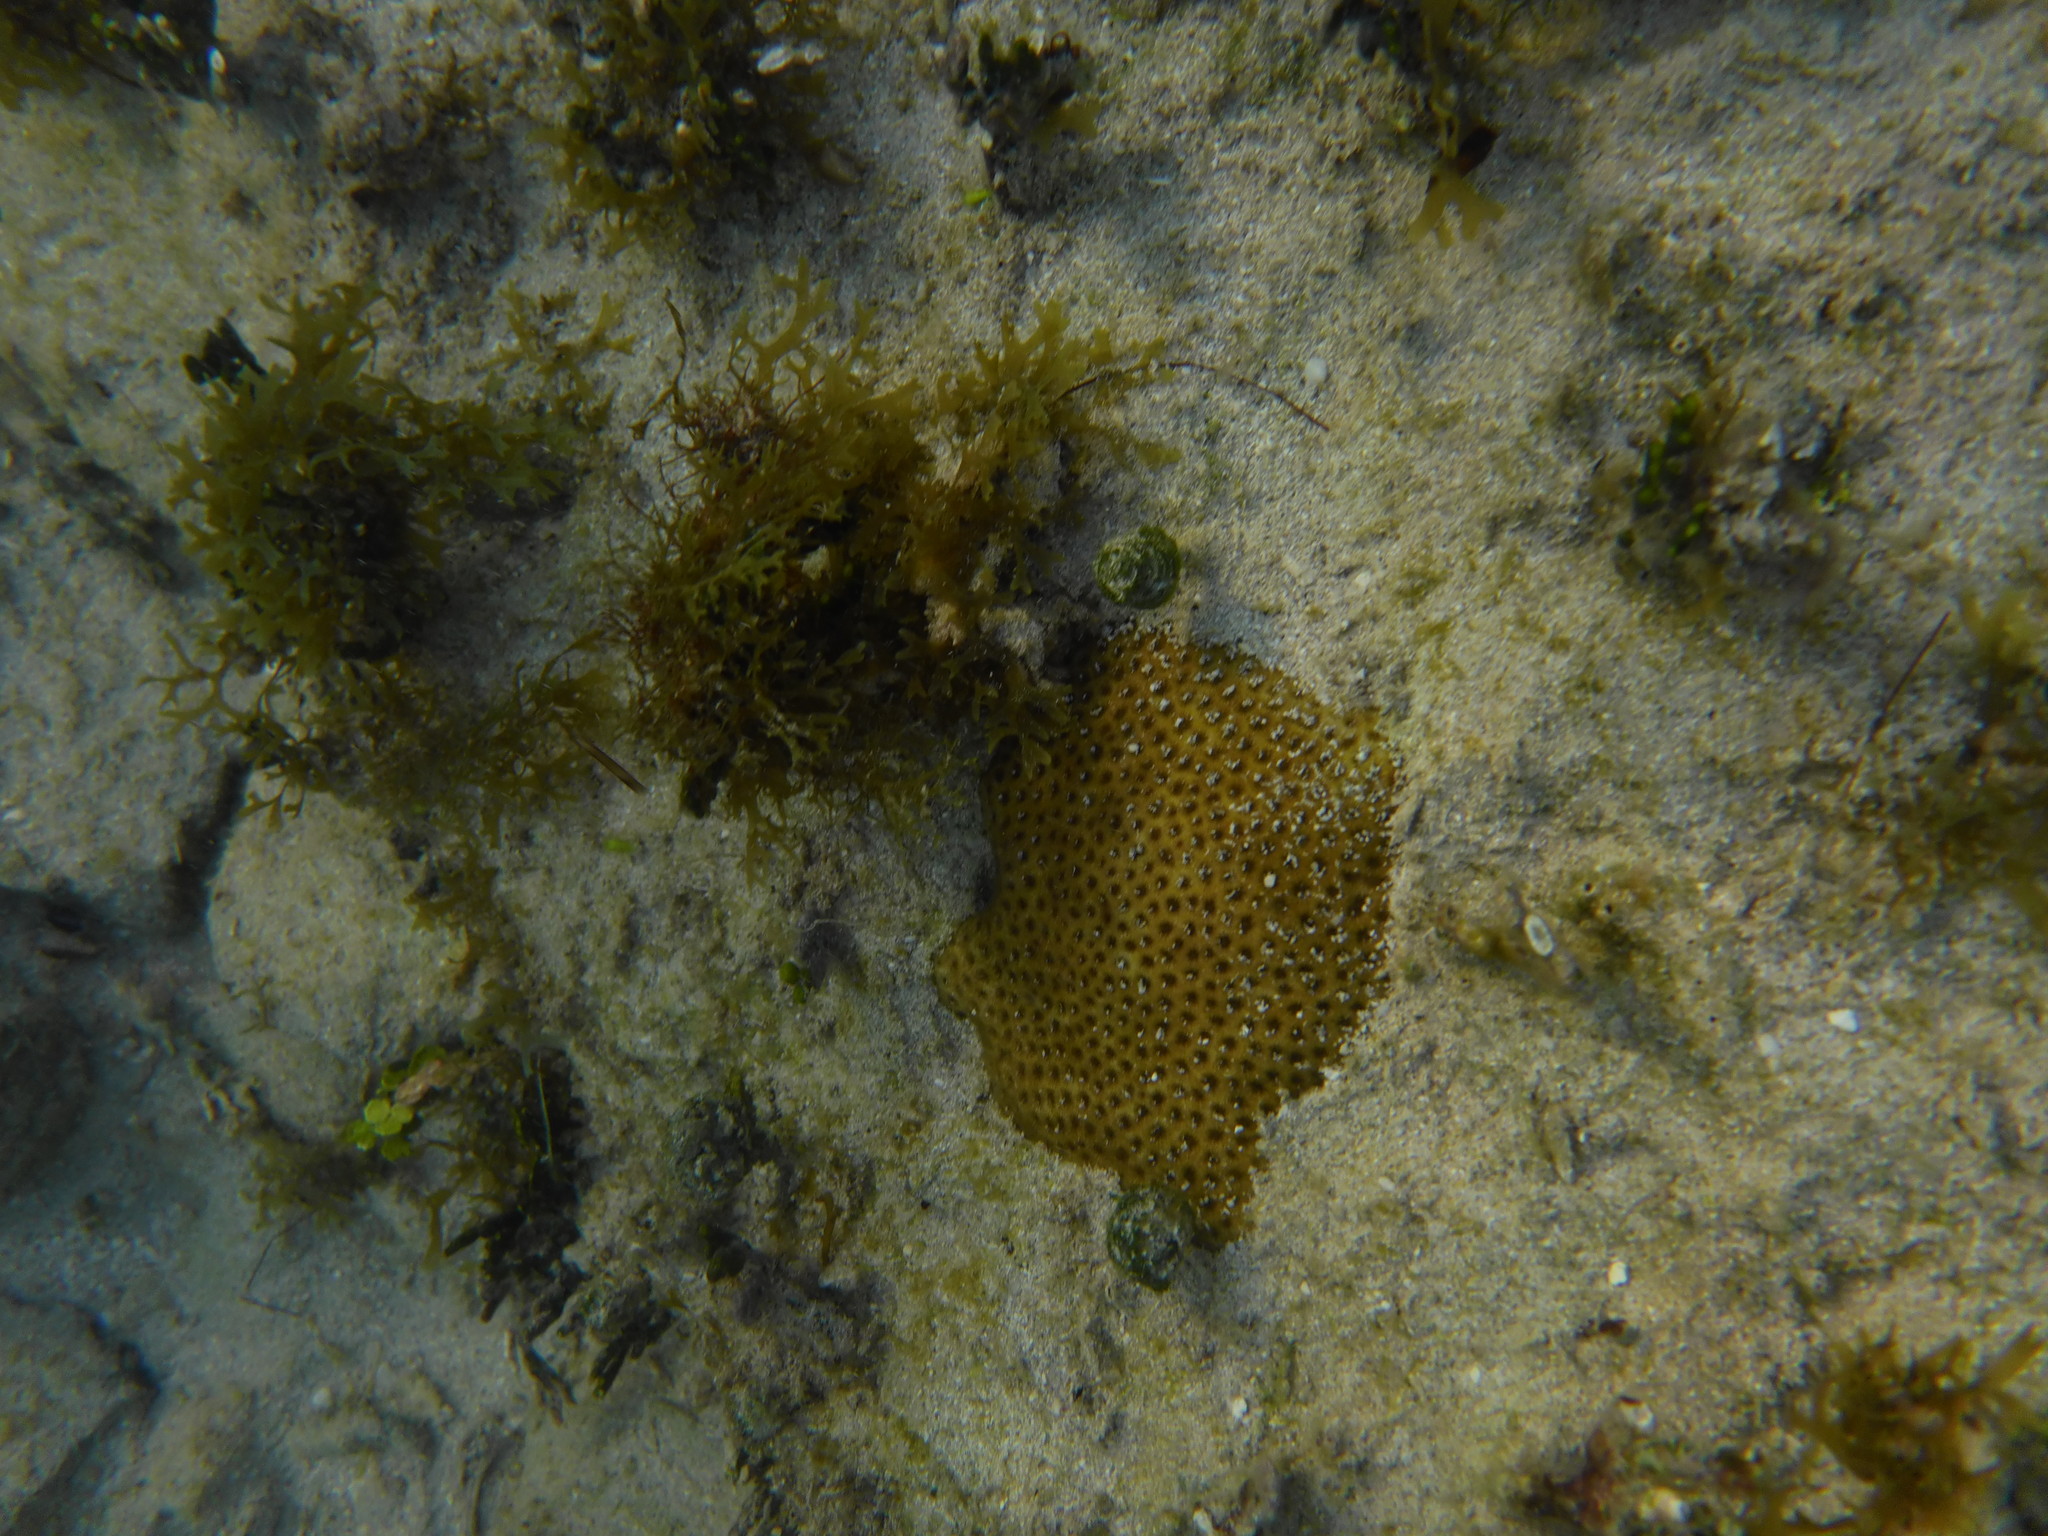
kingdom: Animalia
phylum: Cnidaria
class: Anthozoa
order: Scleractinia
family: Rhizangiidae
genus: Siderastrea
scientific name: Siderastrea radians
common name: Lesser starlet coral
